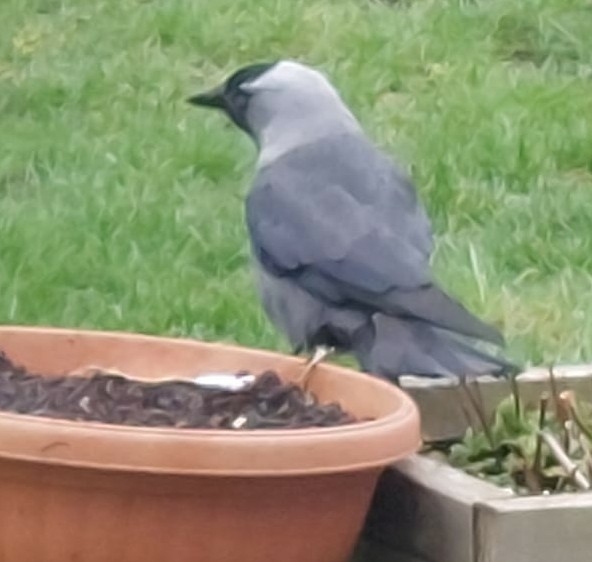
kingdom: Animalia
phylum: Chordata
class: Aves
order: Passeriformes
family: Corvidae
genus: Coloeus
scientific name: Coloeus monedula
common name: Western jackdaw
